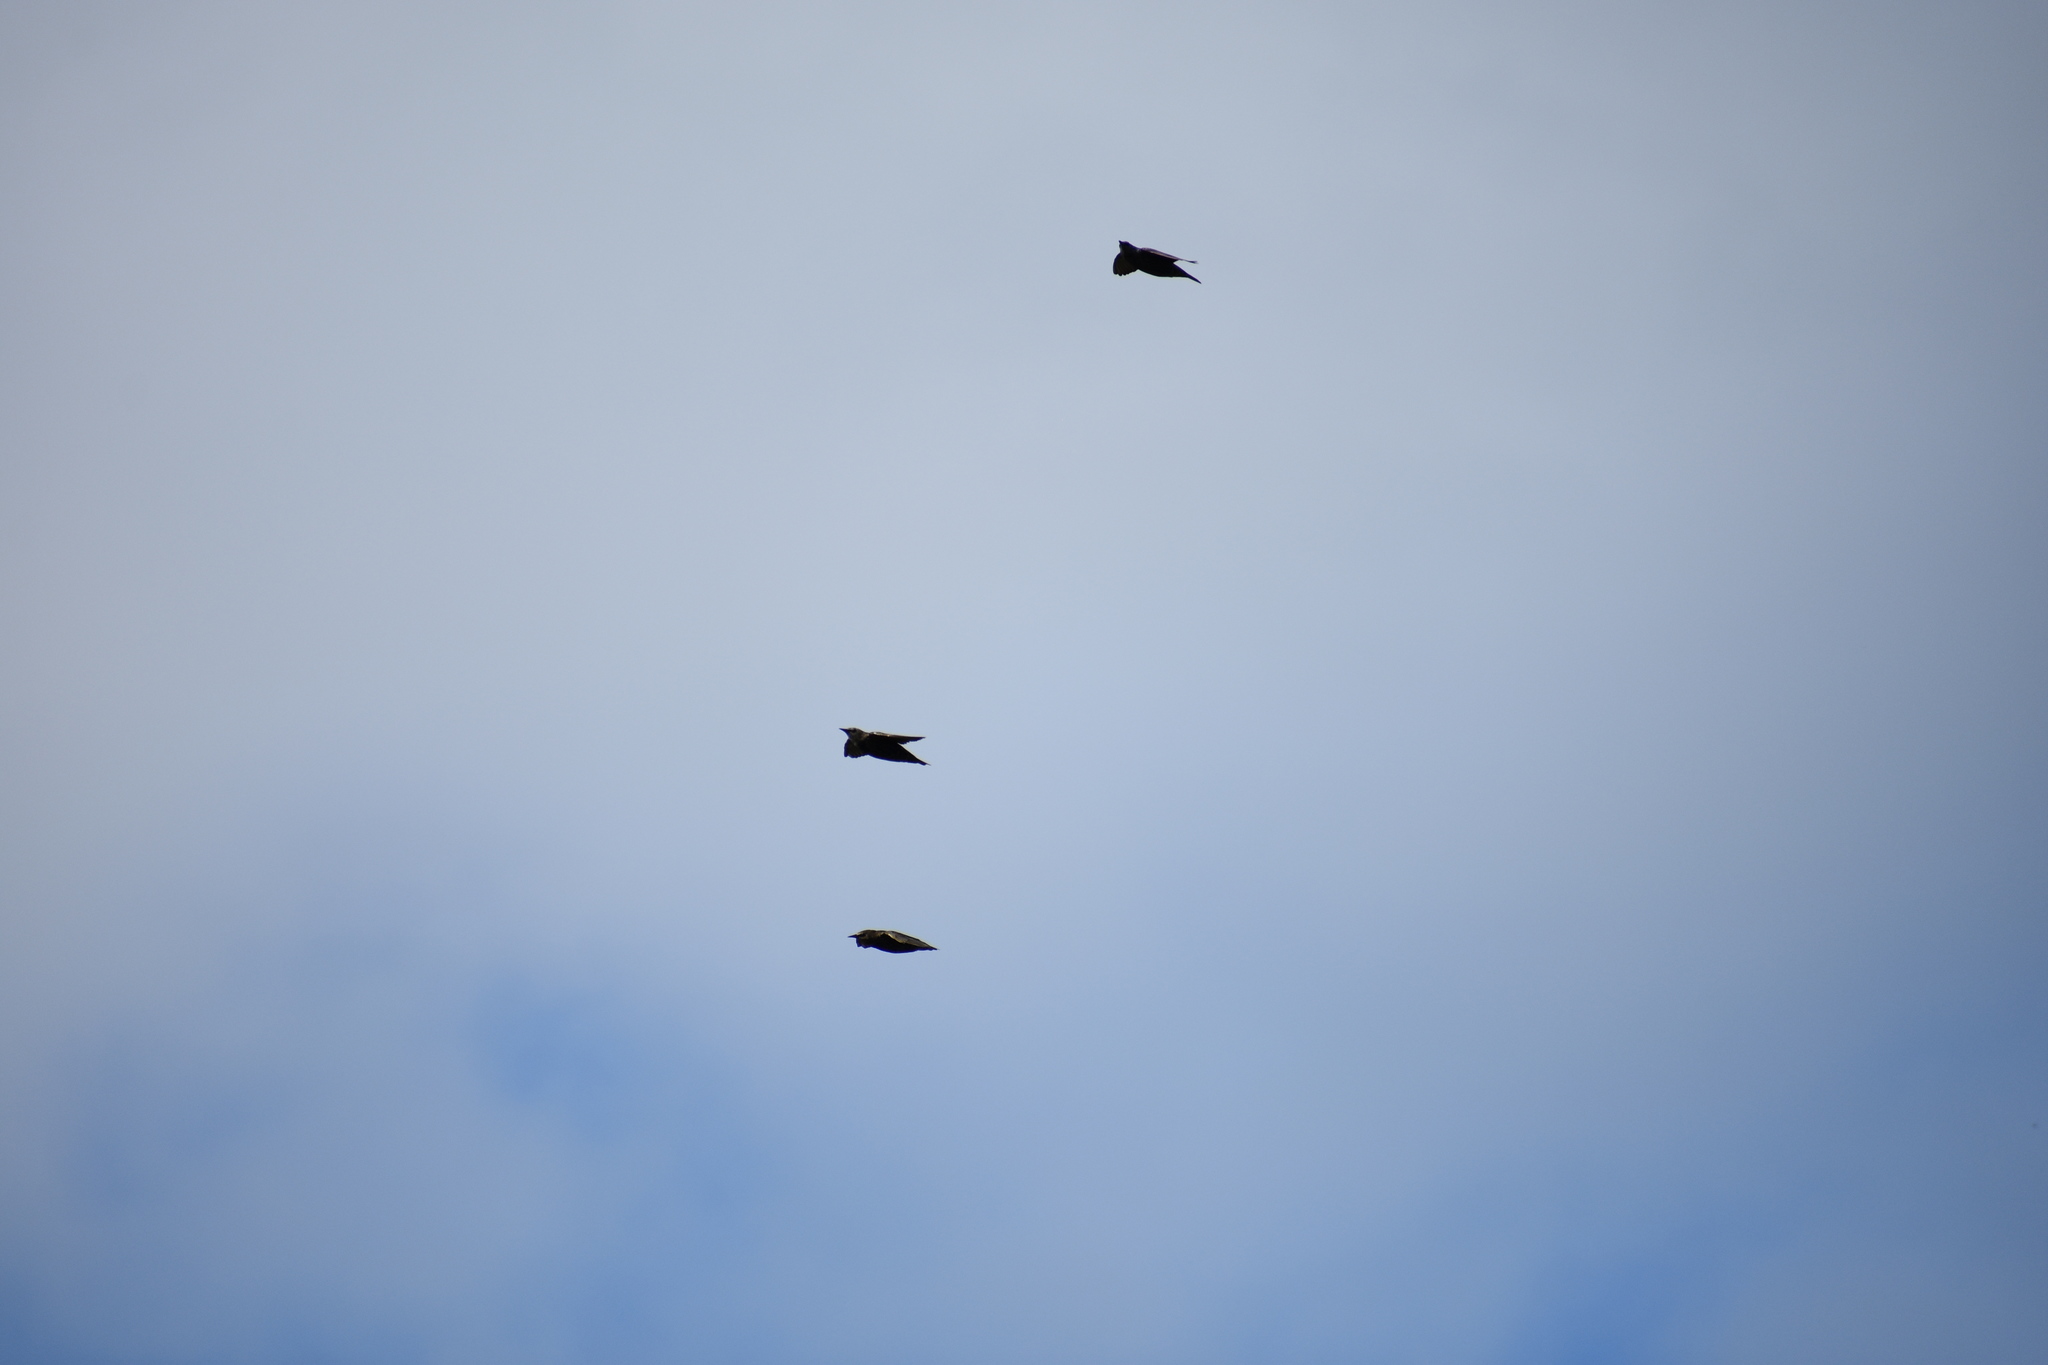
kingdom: Animalia
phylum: Chordata
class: Aves
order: Passeriformes
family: Sturnidae
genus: Sturnus
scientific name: Sturnus vulgaris
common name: Common starling
